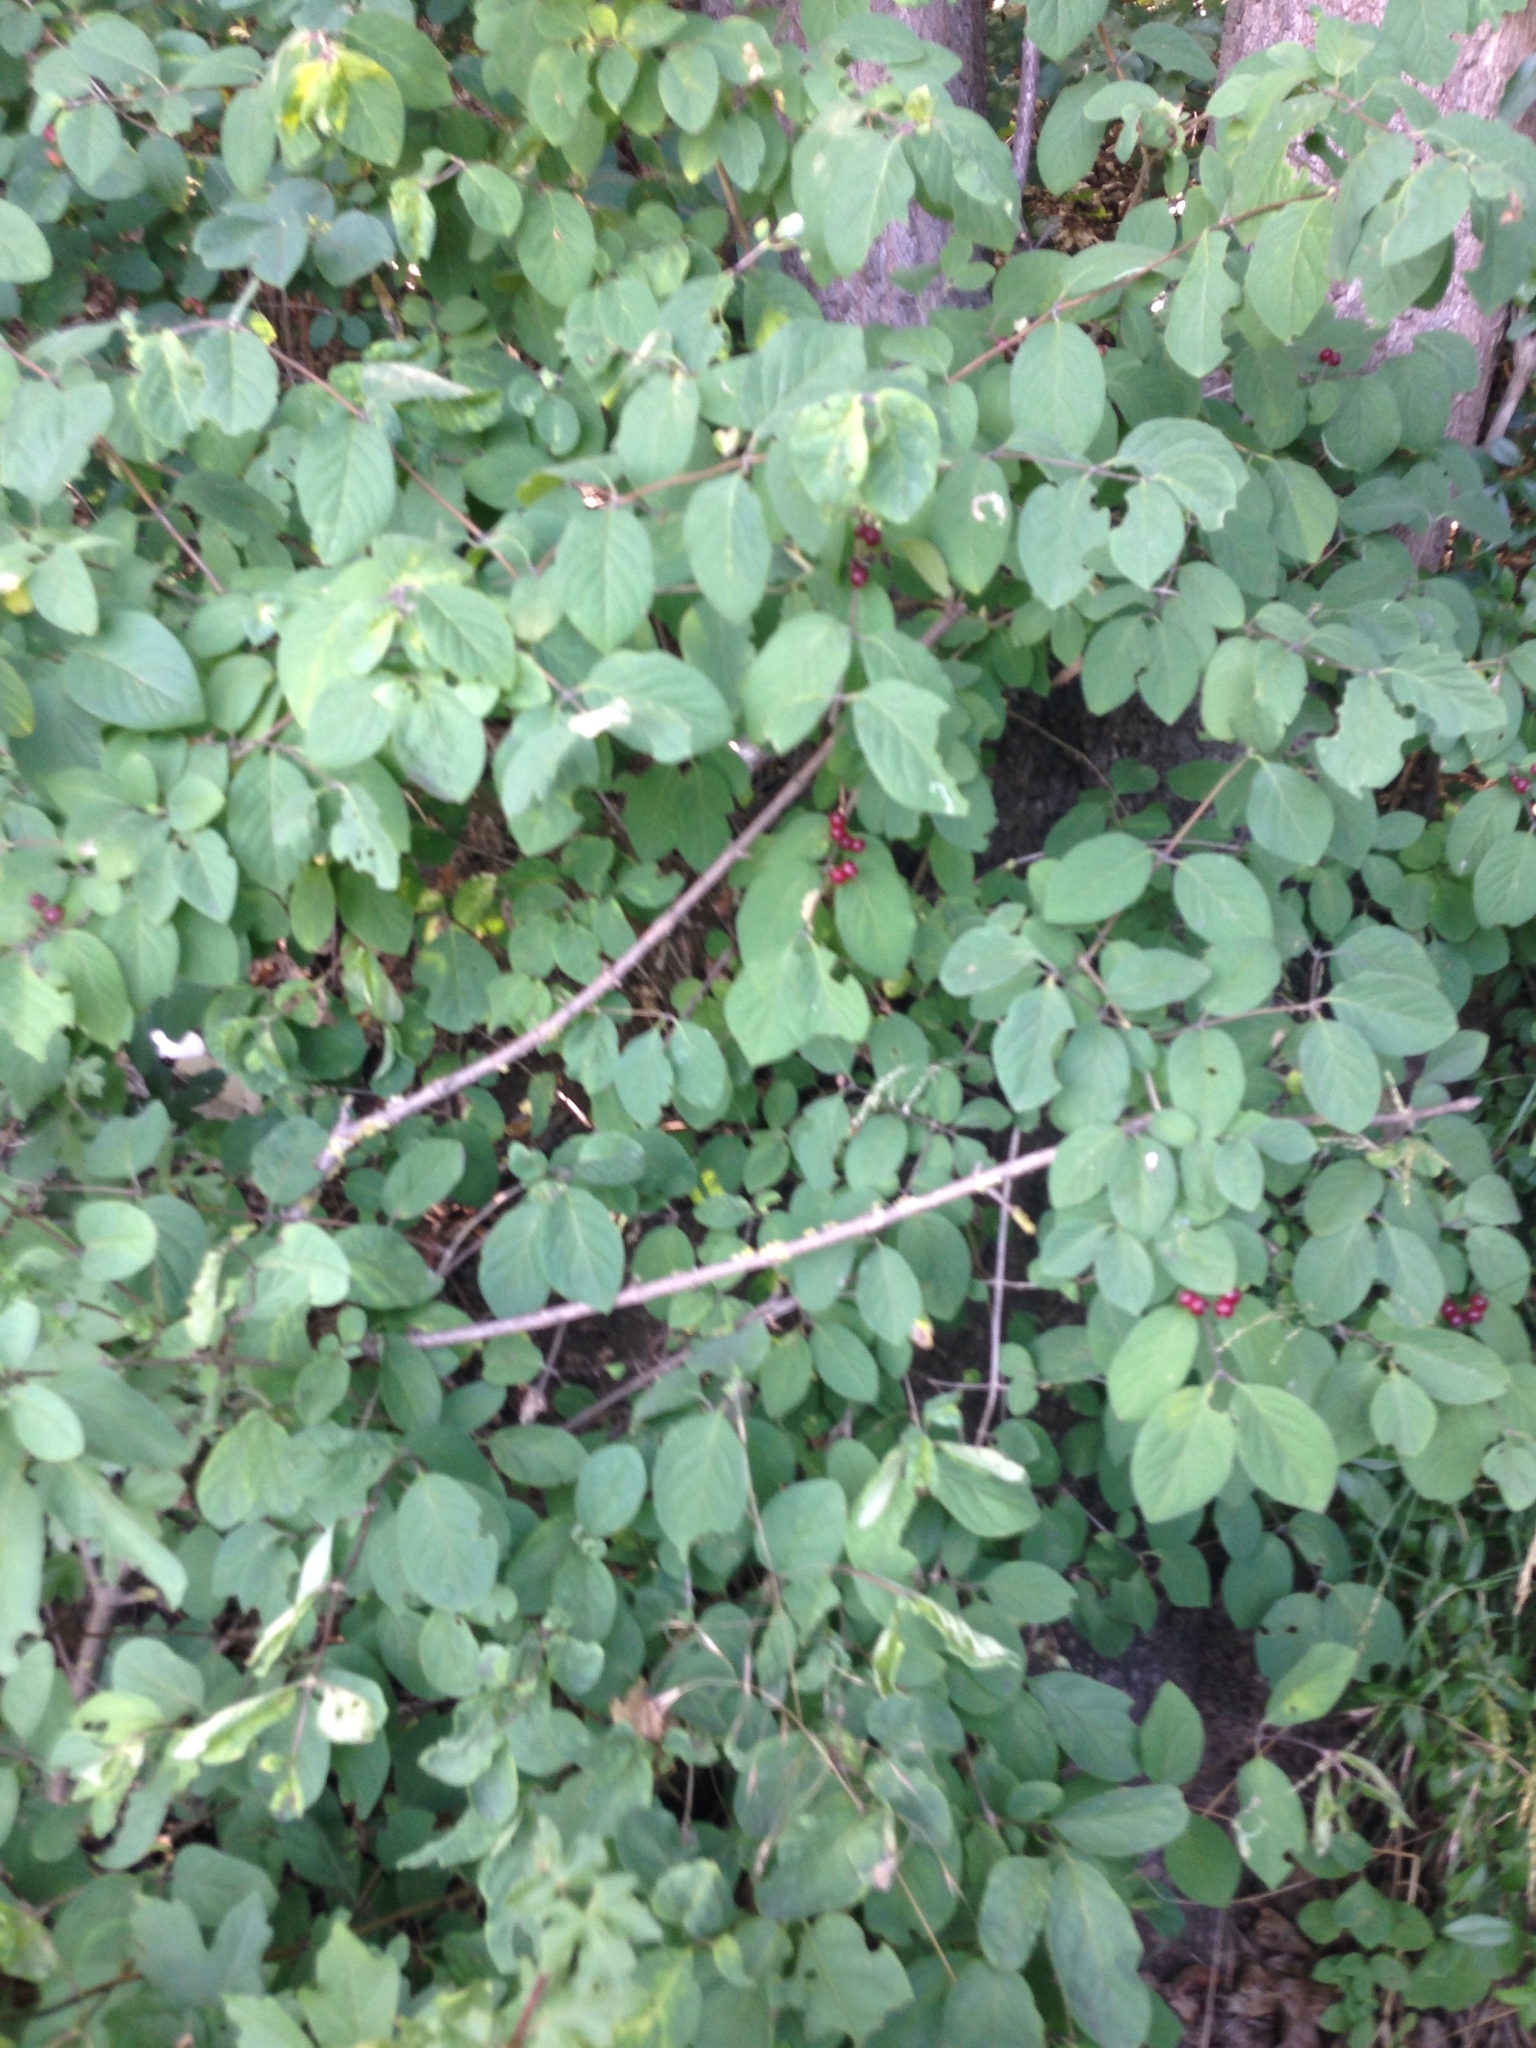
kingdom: Plantae
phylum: Tracheophyta
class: Magnoliopsida
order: Dipsacales
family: Caprifoliaceae
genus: Lonicera
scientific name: Lonicera xylosteum
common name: Fly honeysuckle
